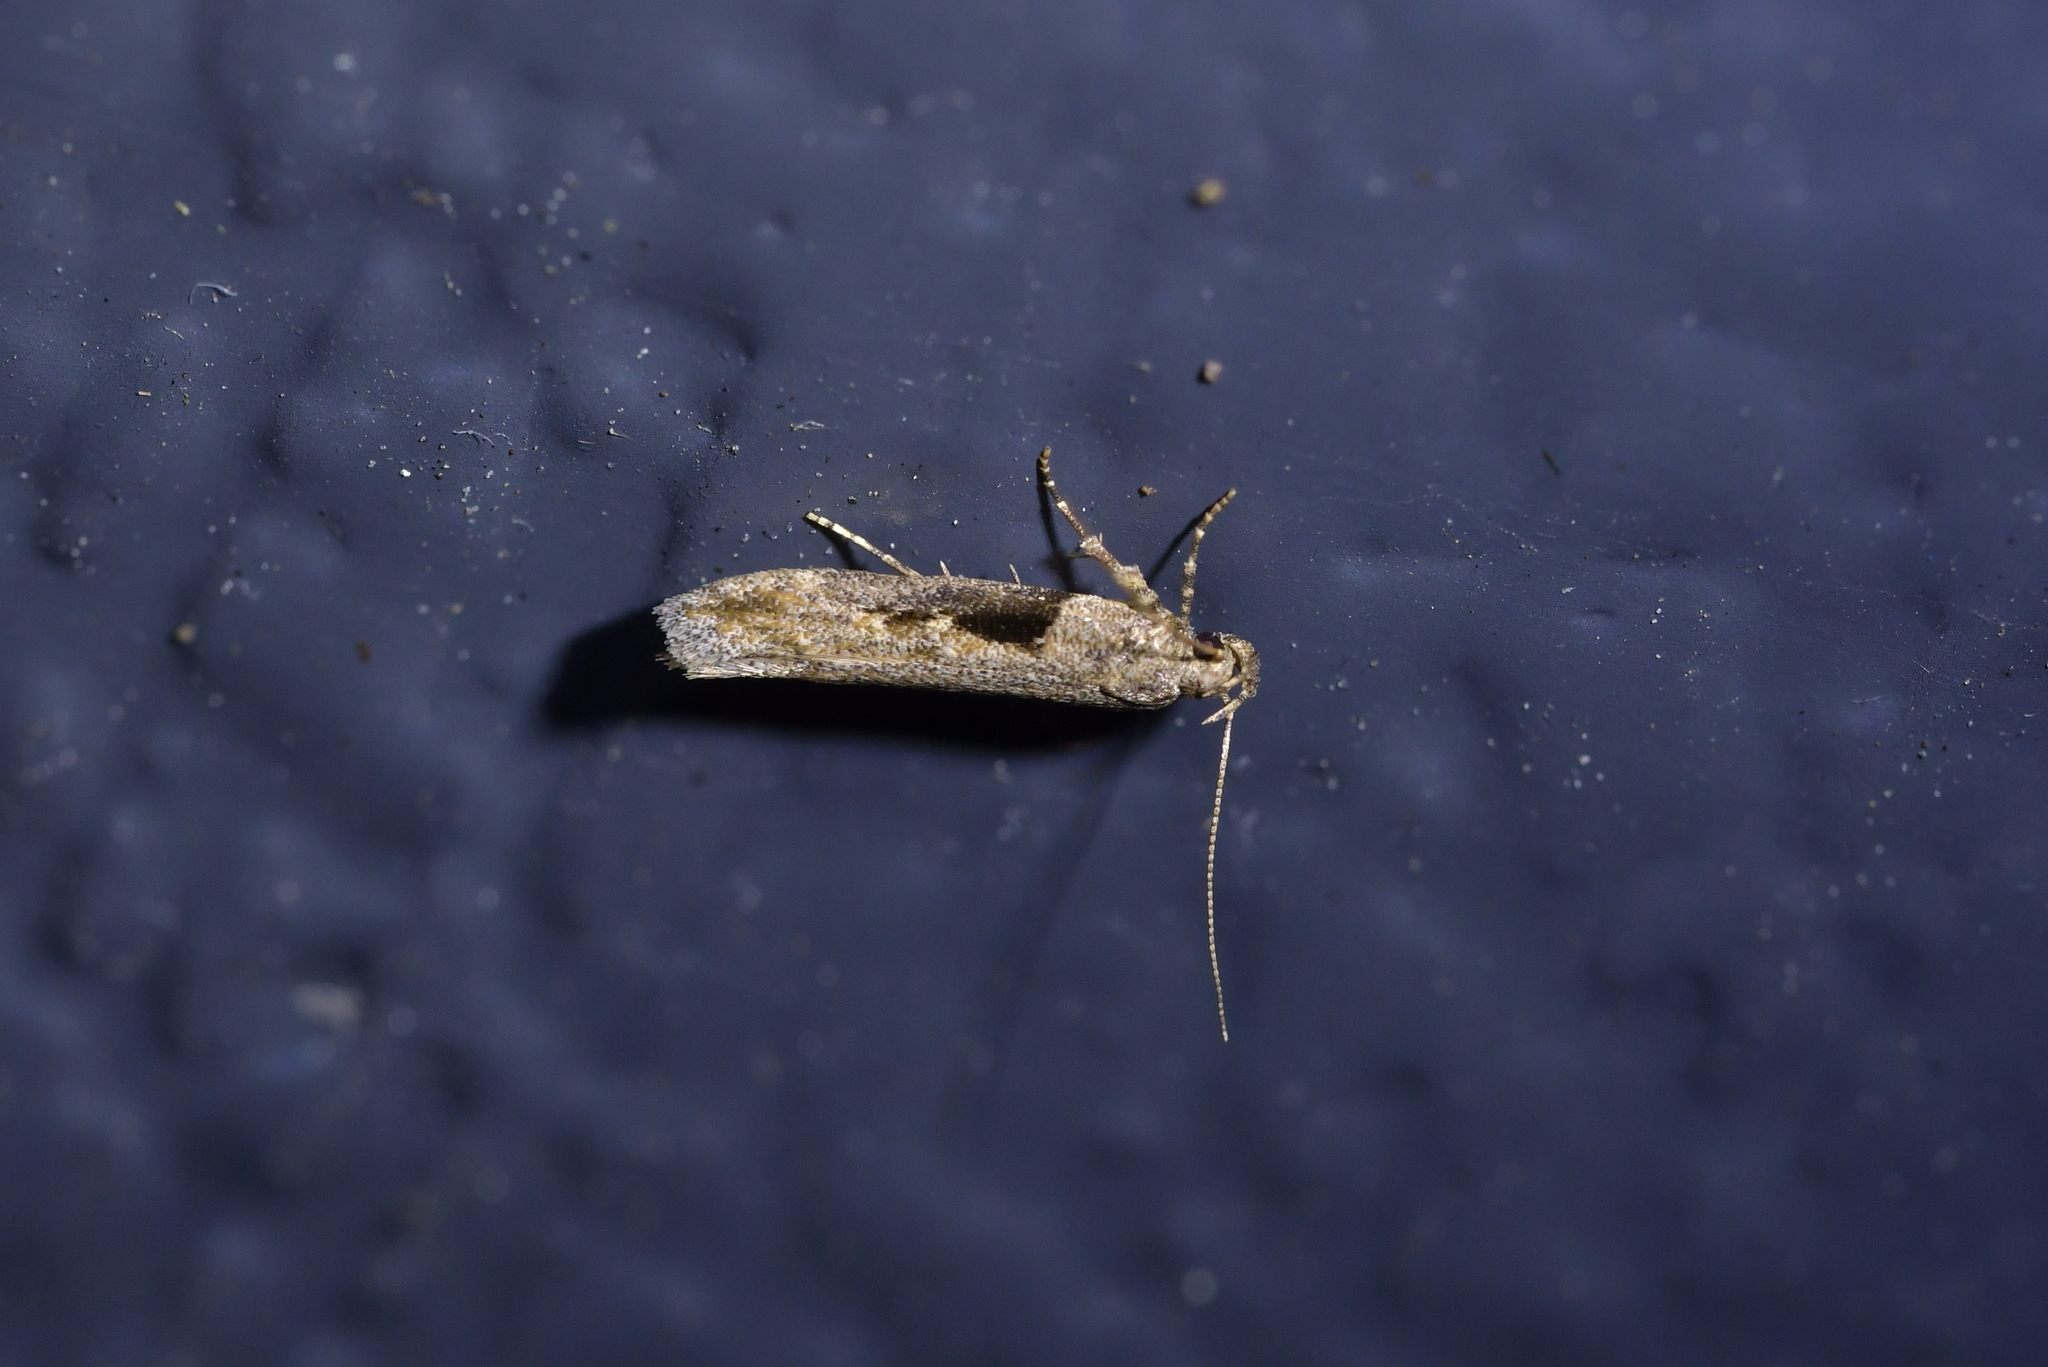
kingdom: Animalia
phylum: Arthropoda
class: Insecta
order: Lepidoptera
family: Gelechiidae
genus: Symmetrischema
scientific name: Symmetrischema tangolias
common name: Moth
